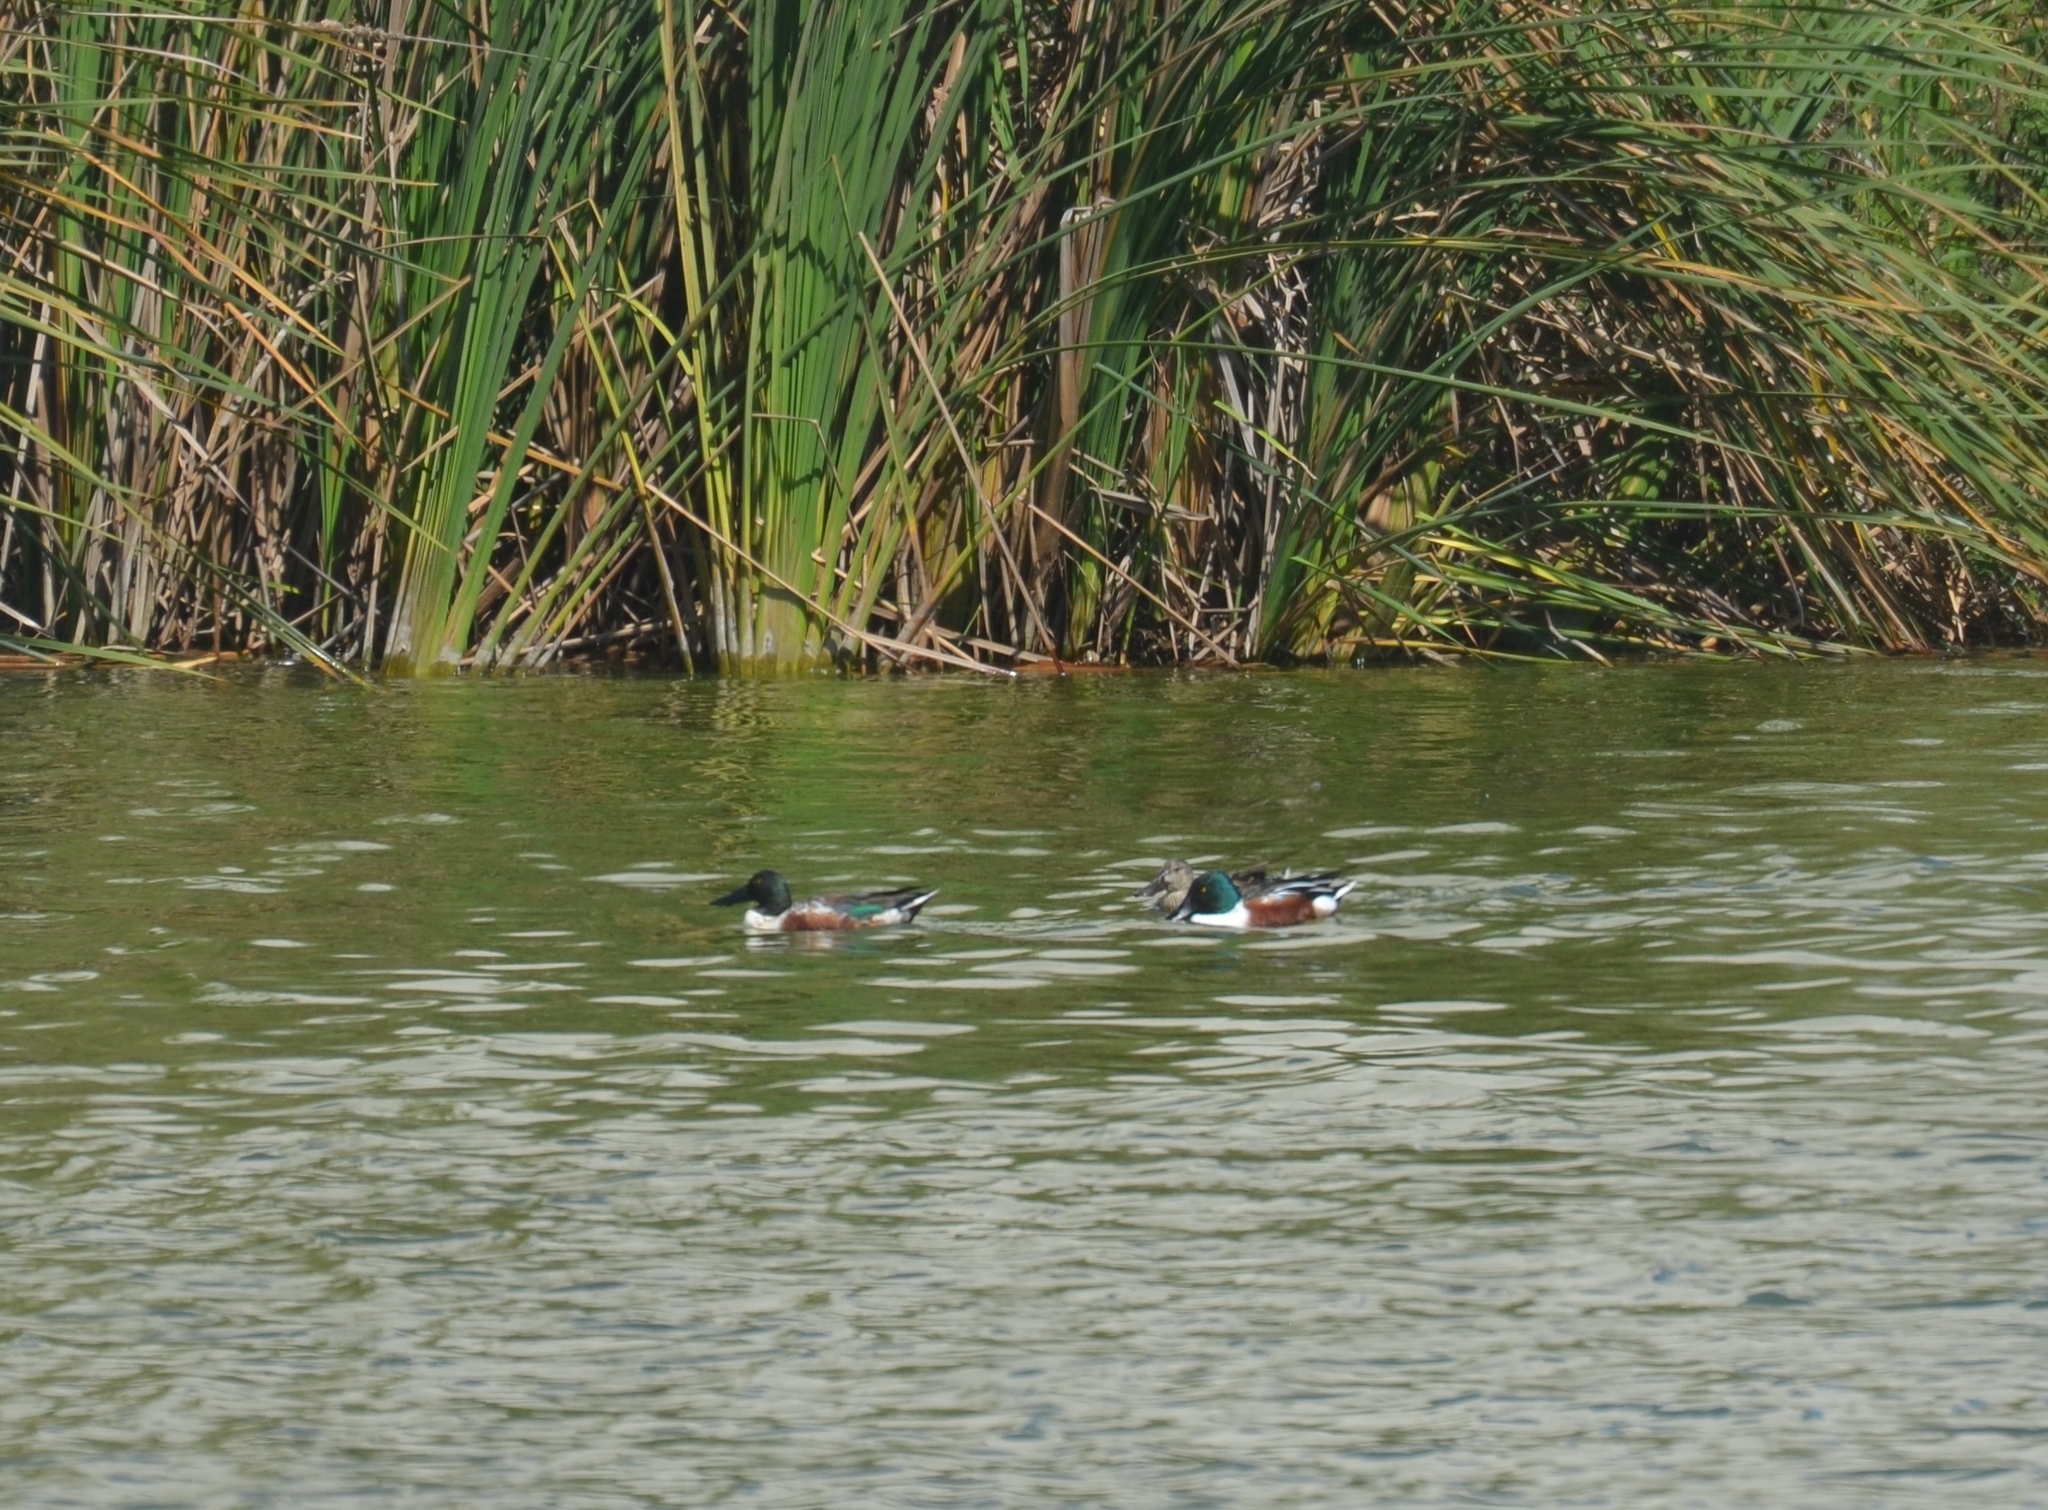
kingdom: Animalia
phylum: Chordata
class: Aves
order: Anseriformes
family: Anatidae
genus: Spatula
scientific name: Spatula clypeata
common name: Northern shoveler
